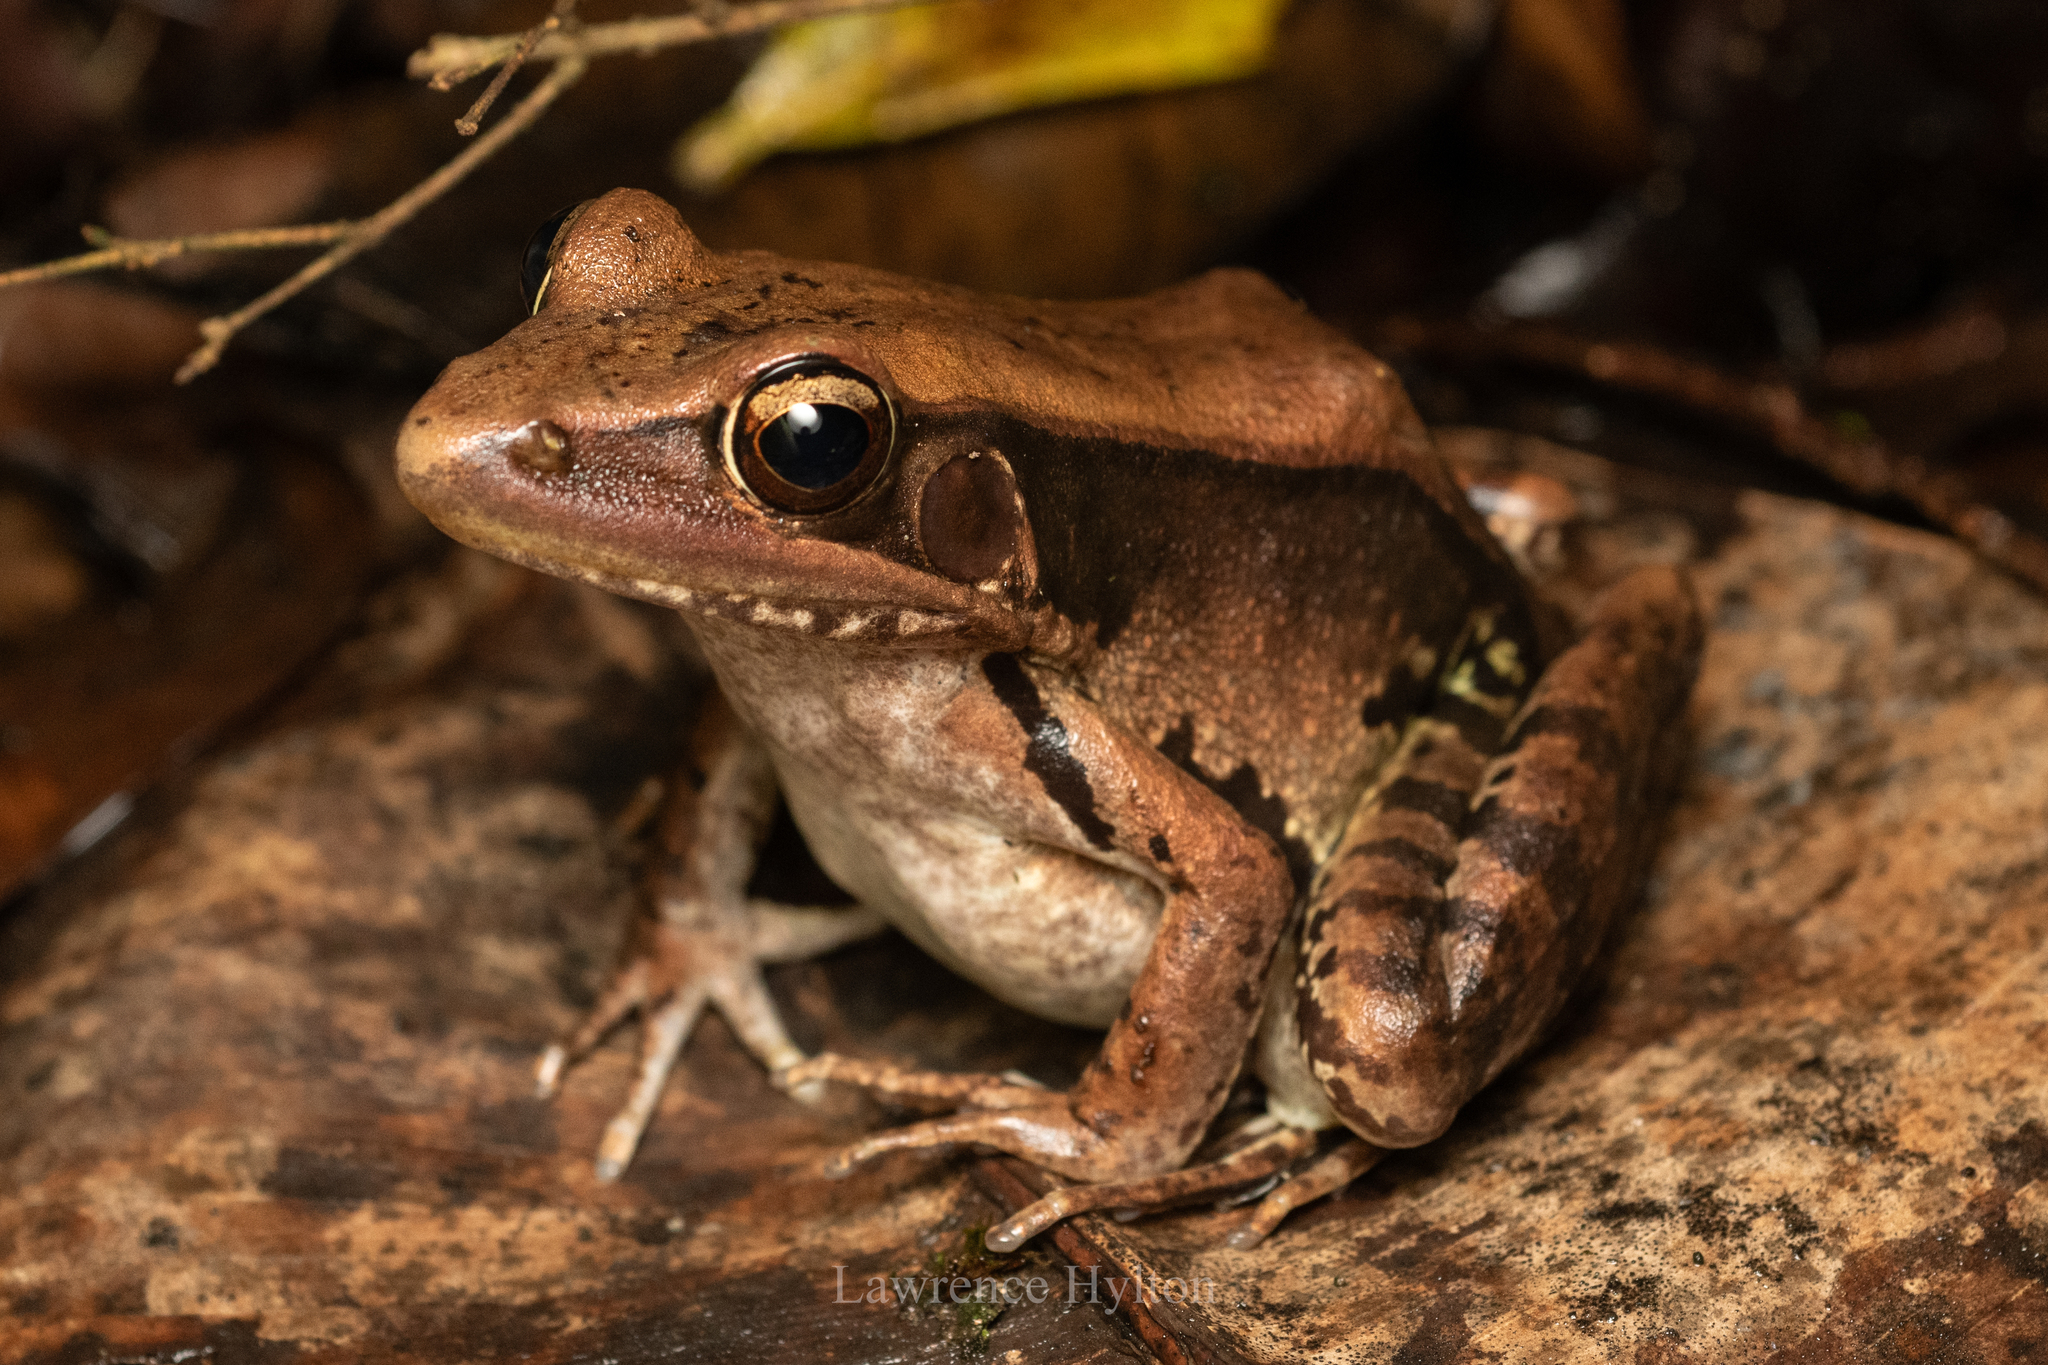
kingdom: Animalia
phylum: Chordata
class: Amphibia
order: Anura
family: Ranidae
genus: Sylvirana
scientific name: Sylvirana guentheri
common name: Guenther's amoy frog
